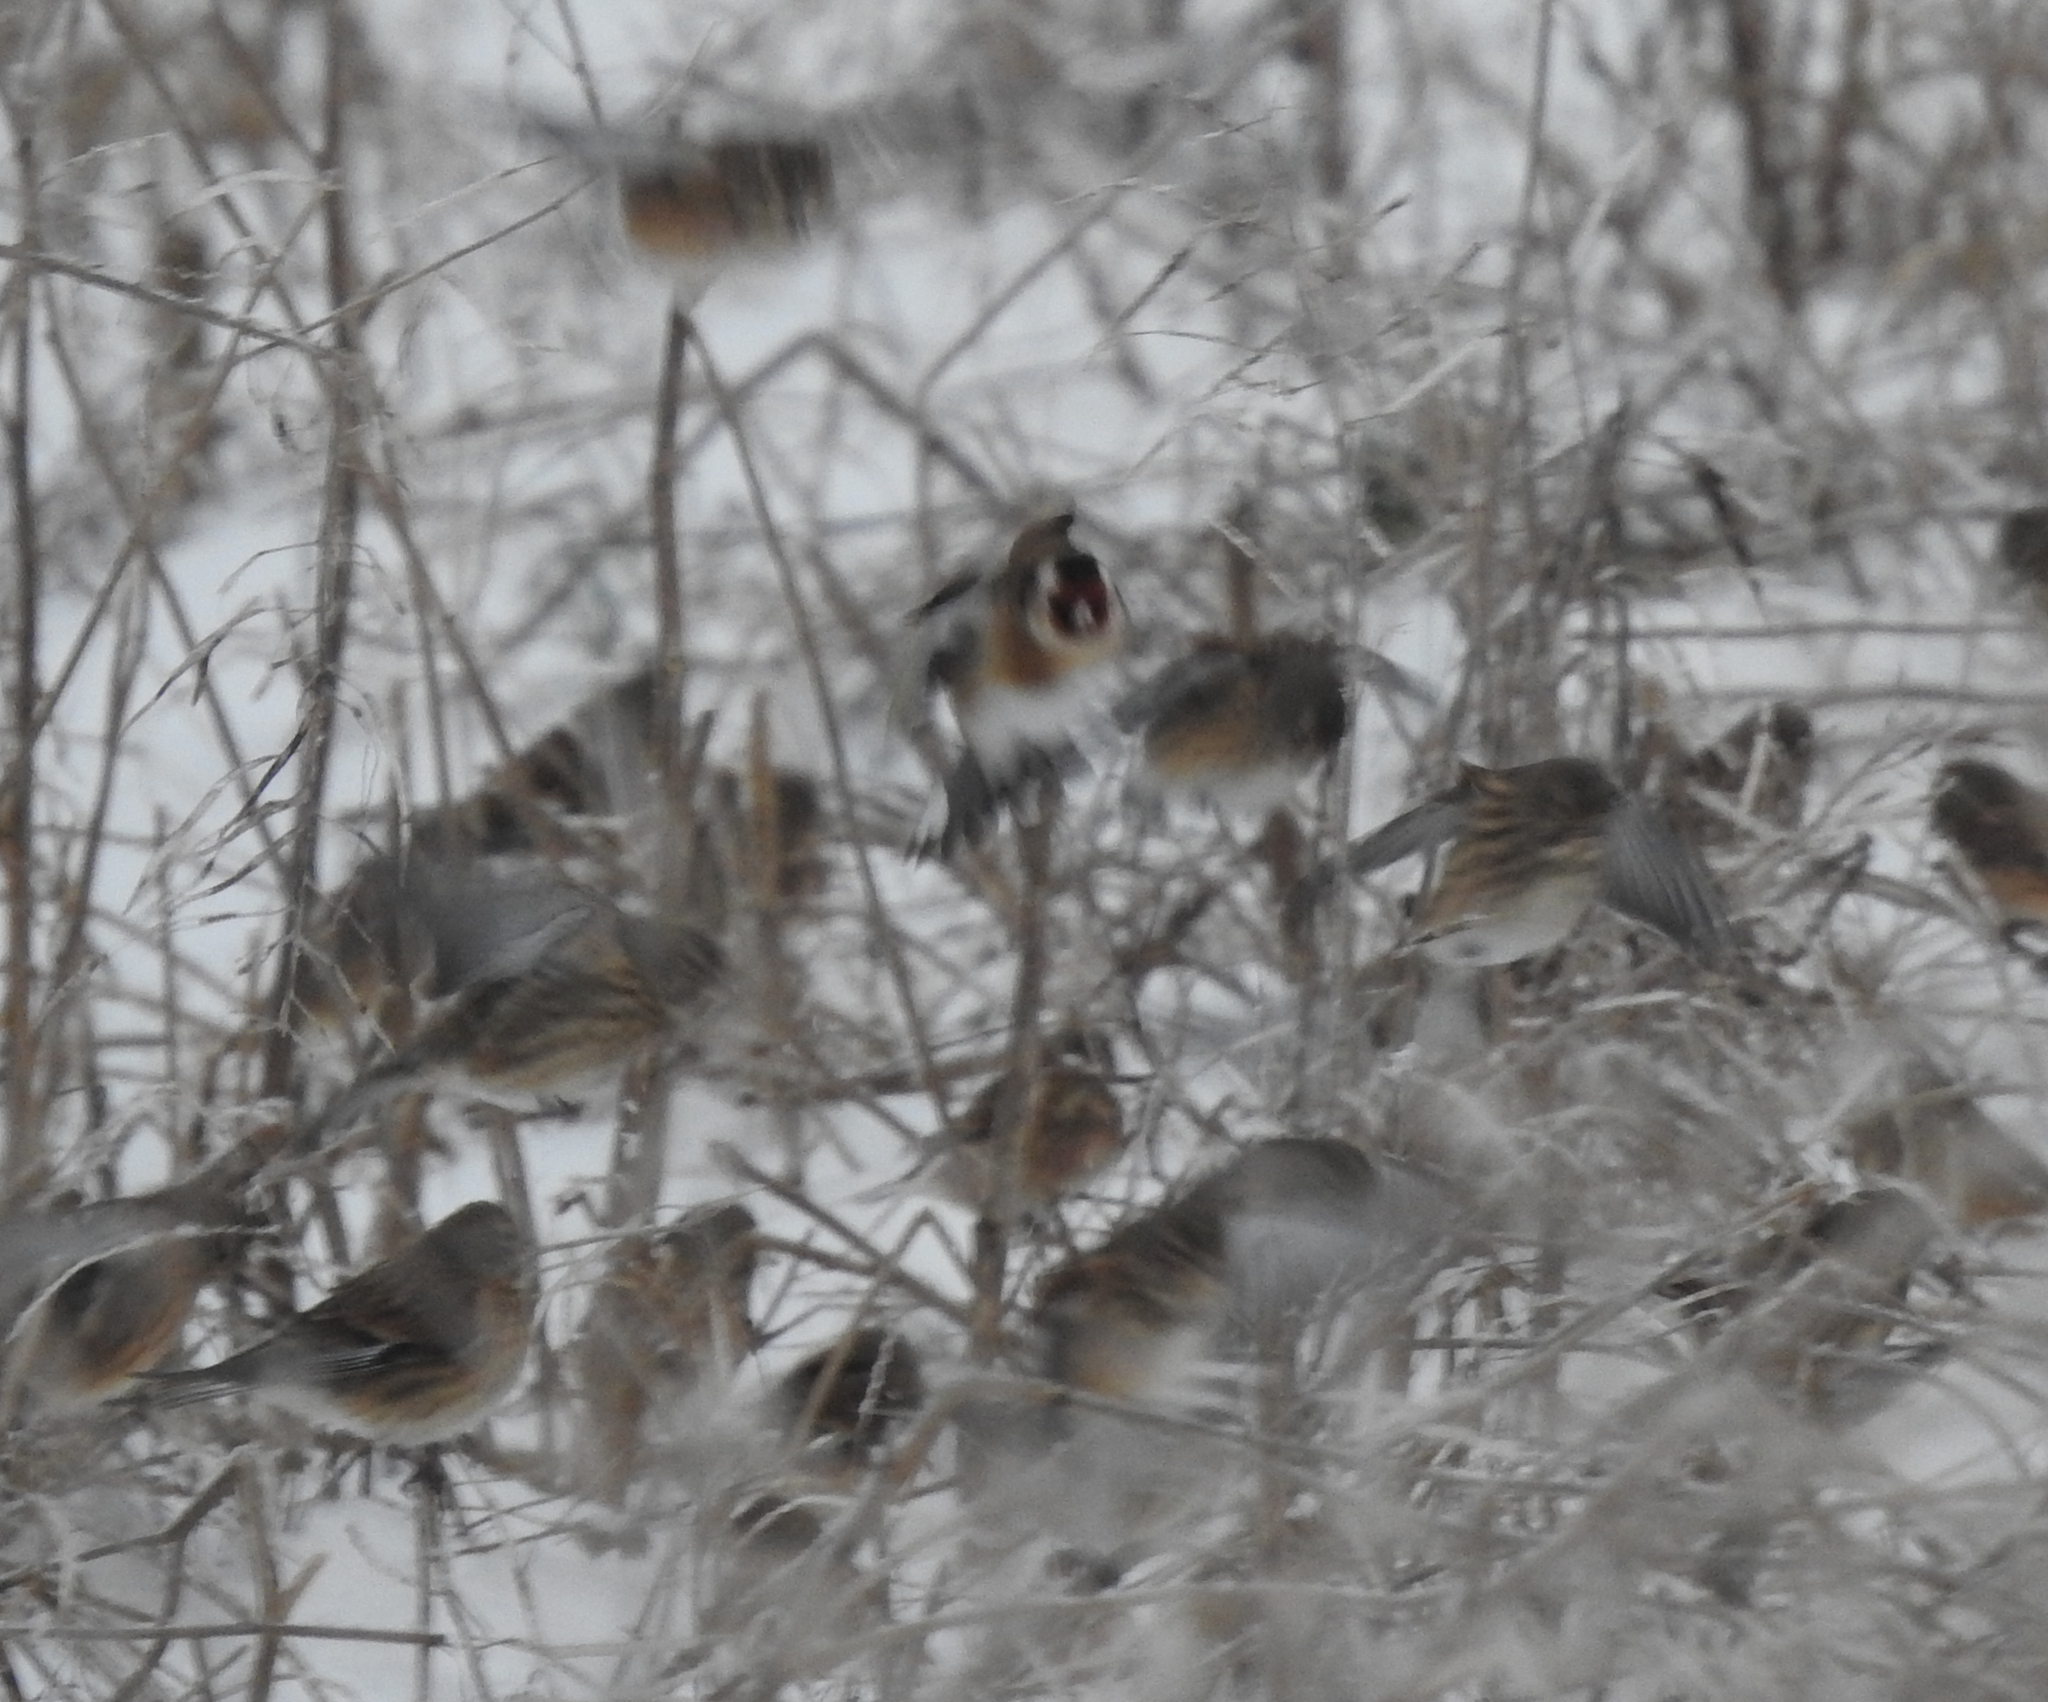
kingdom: Animalia
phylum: Chordata
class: Aves
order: Passeriformes
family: Fringillidae
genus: Carduelis
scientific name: Carduelis carduelis
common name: European goldfinch
